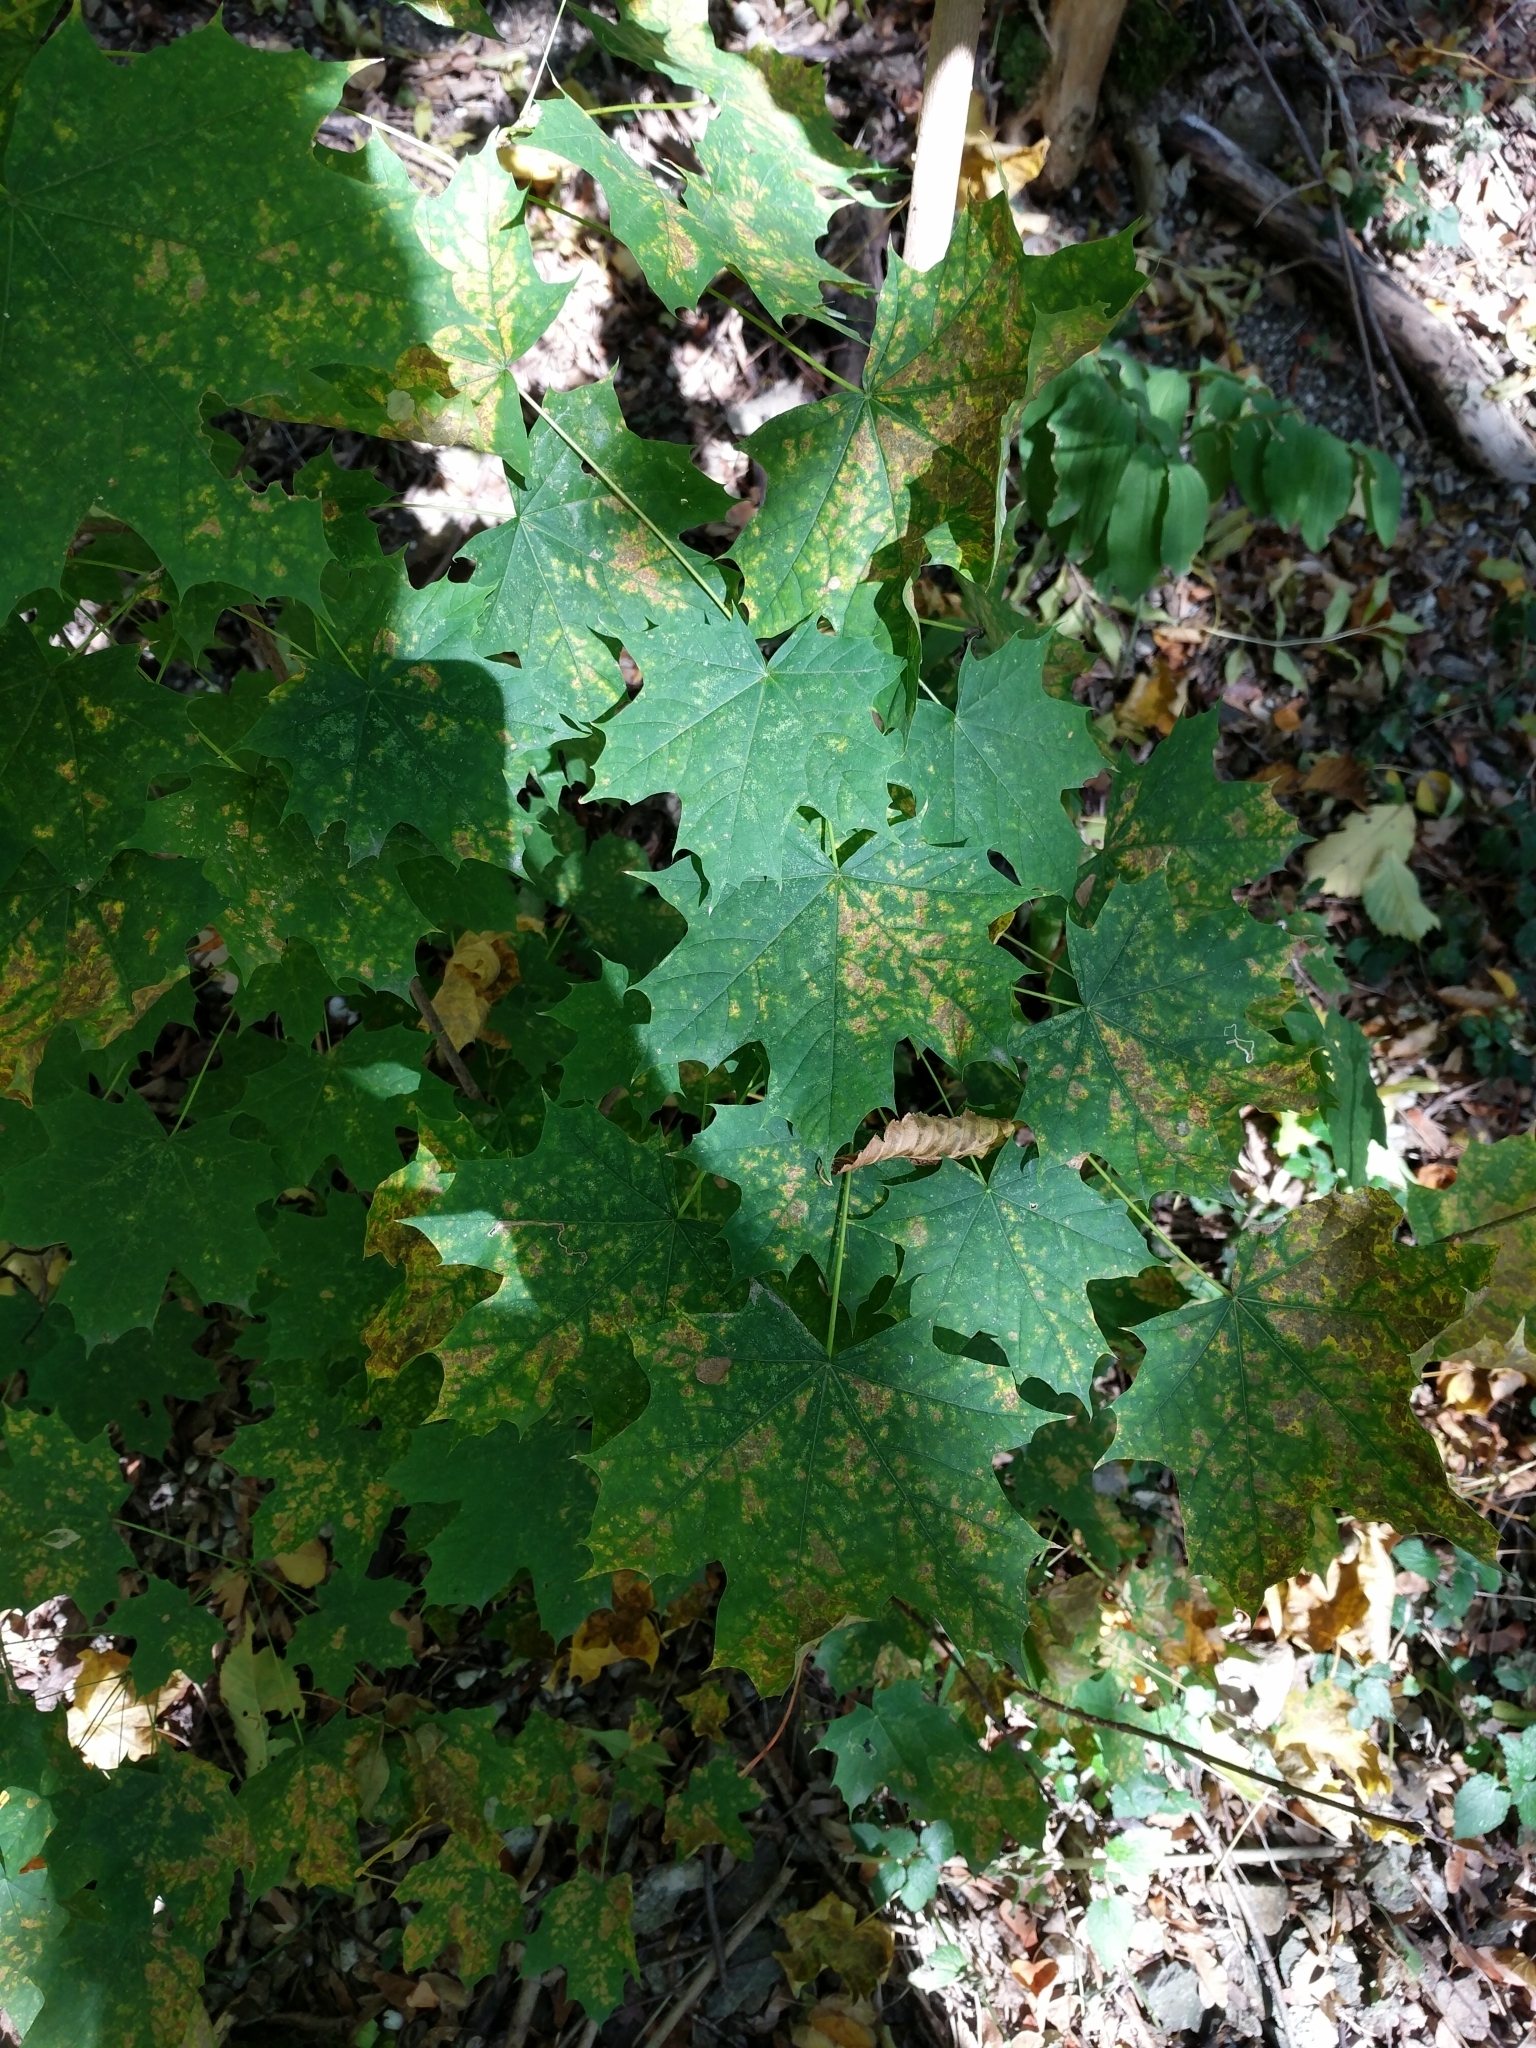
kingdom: Plantae
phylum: Tracheophyta
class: Magnoliopsida
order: Sapindales
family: Sapindaceae
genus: Acer
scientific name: Acer platanoides
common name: Norway maple
